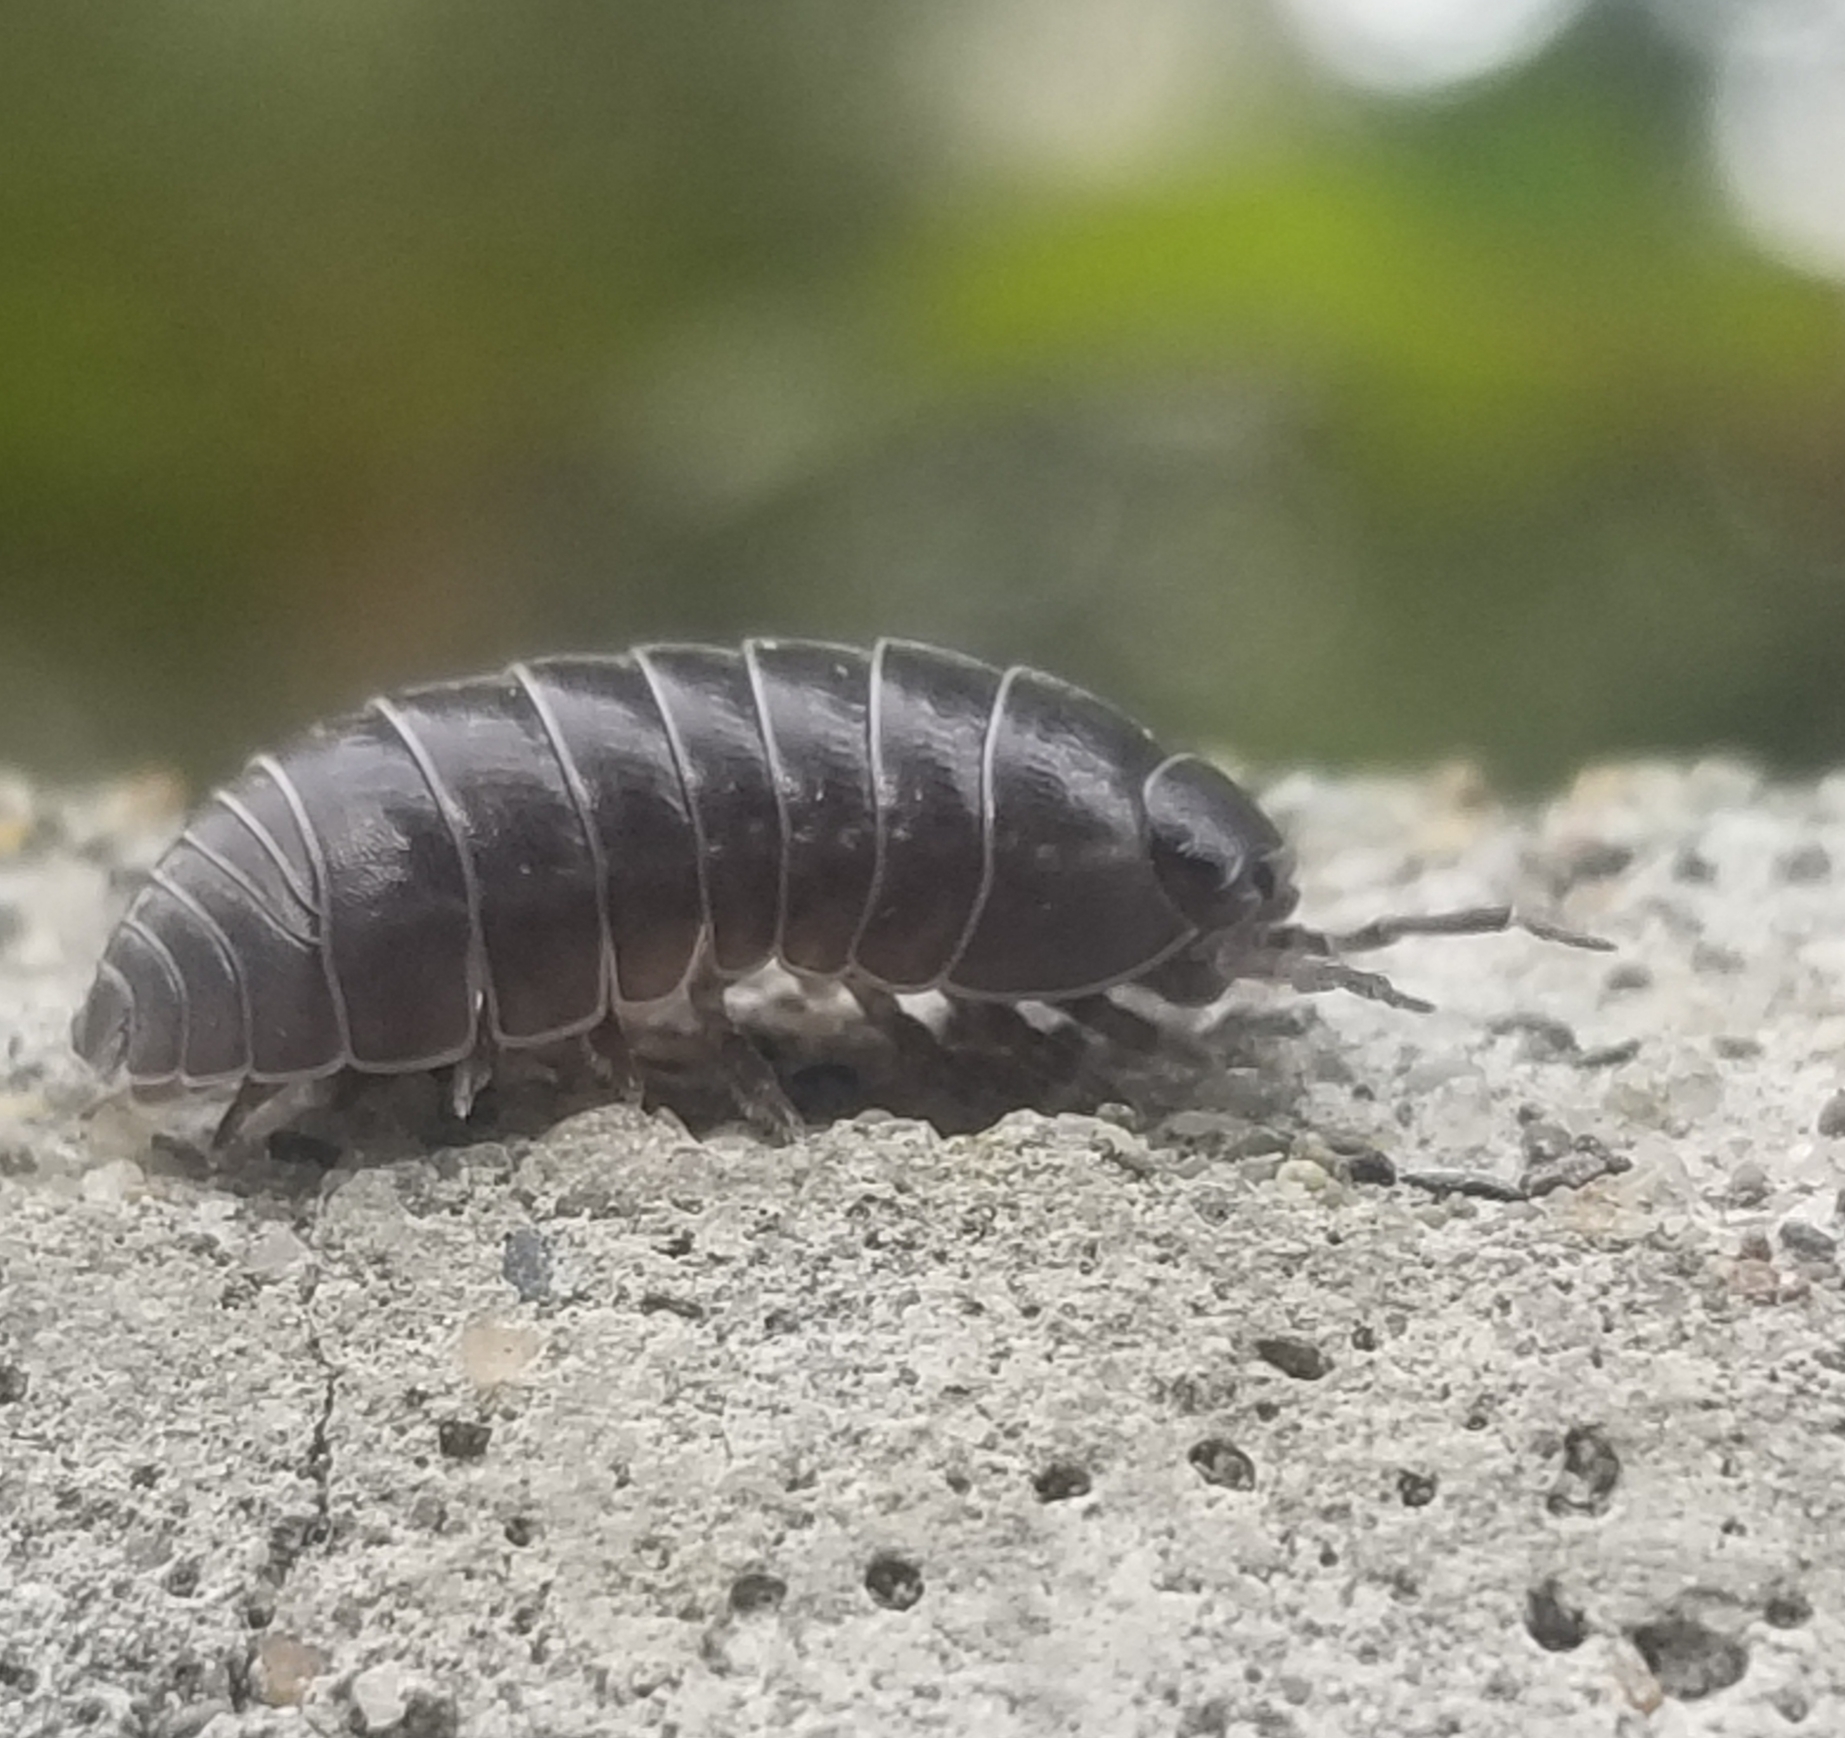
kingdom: Animalia
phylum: Arthropoda
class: Malacostraca
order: Isopoda
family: Armadillidiidae
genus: Armadillidium
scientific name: Armadillidium vulgare
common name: Common pill woodlouse
